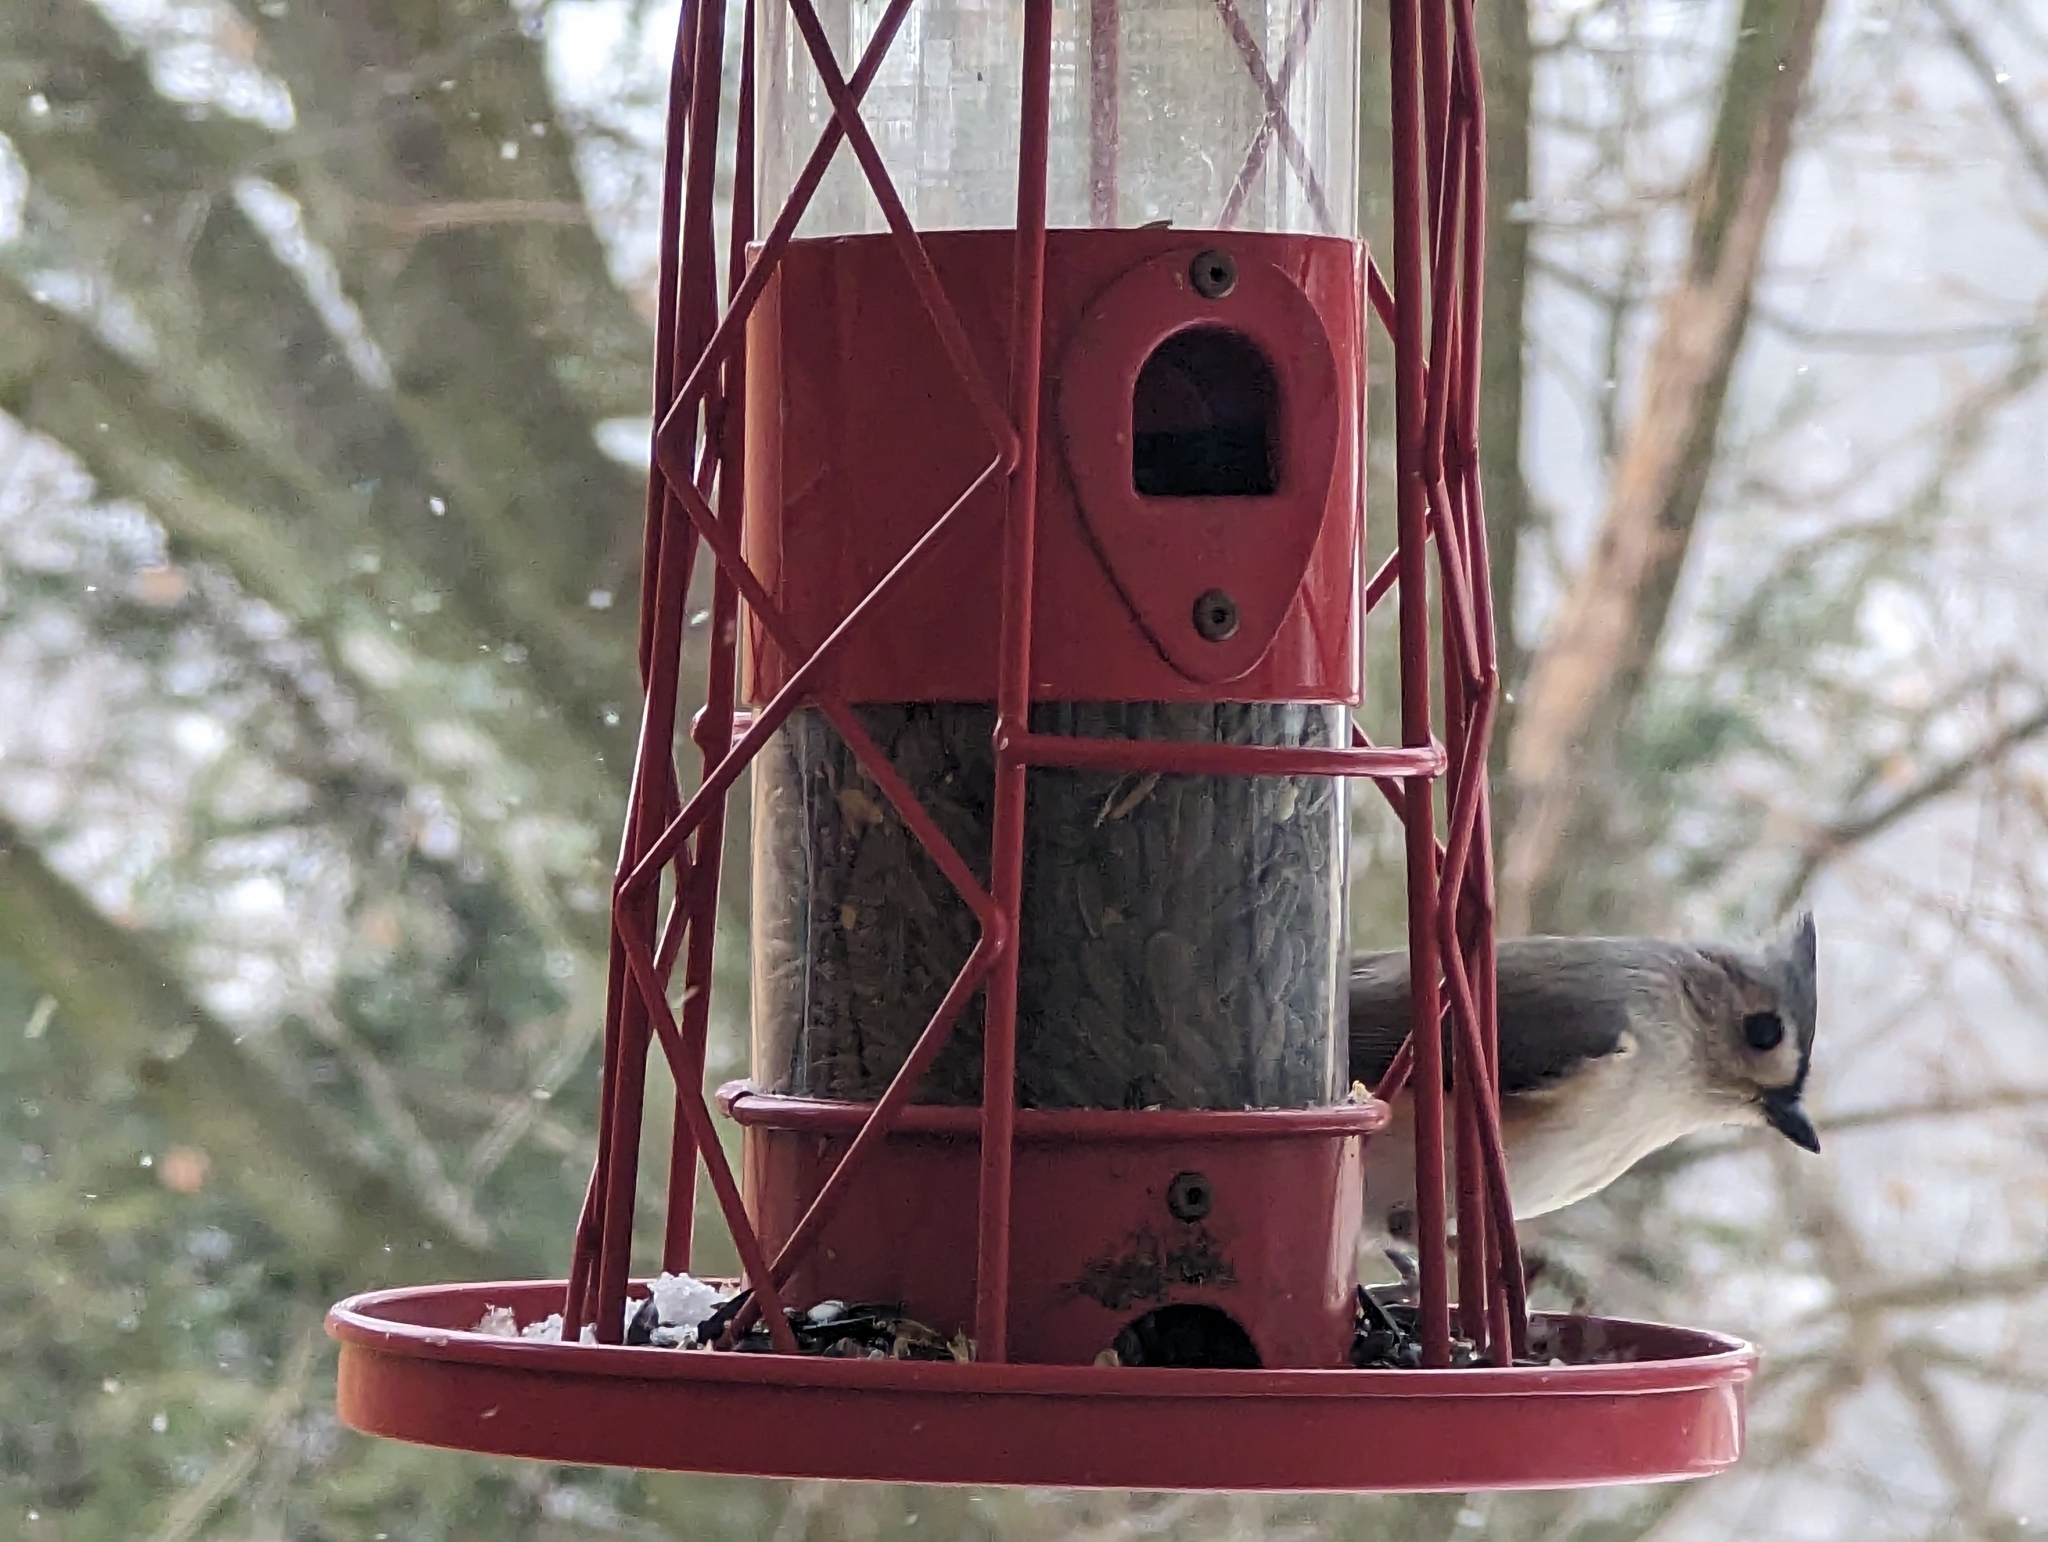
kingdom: Animalia
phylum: Chordata
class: Aves
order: Passeriformes
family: Paridae
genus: Baeolophus
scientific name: Baeolophus bicolor
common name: Tufted titmouse
